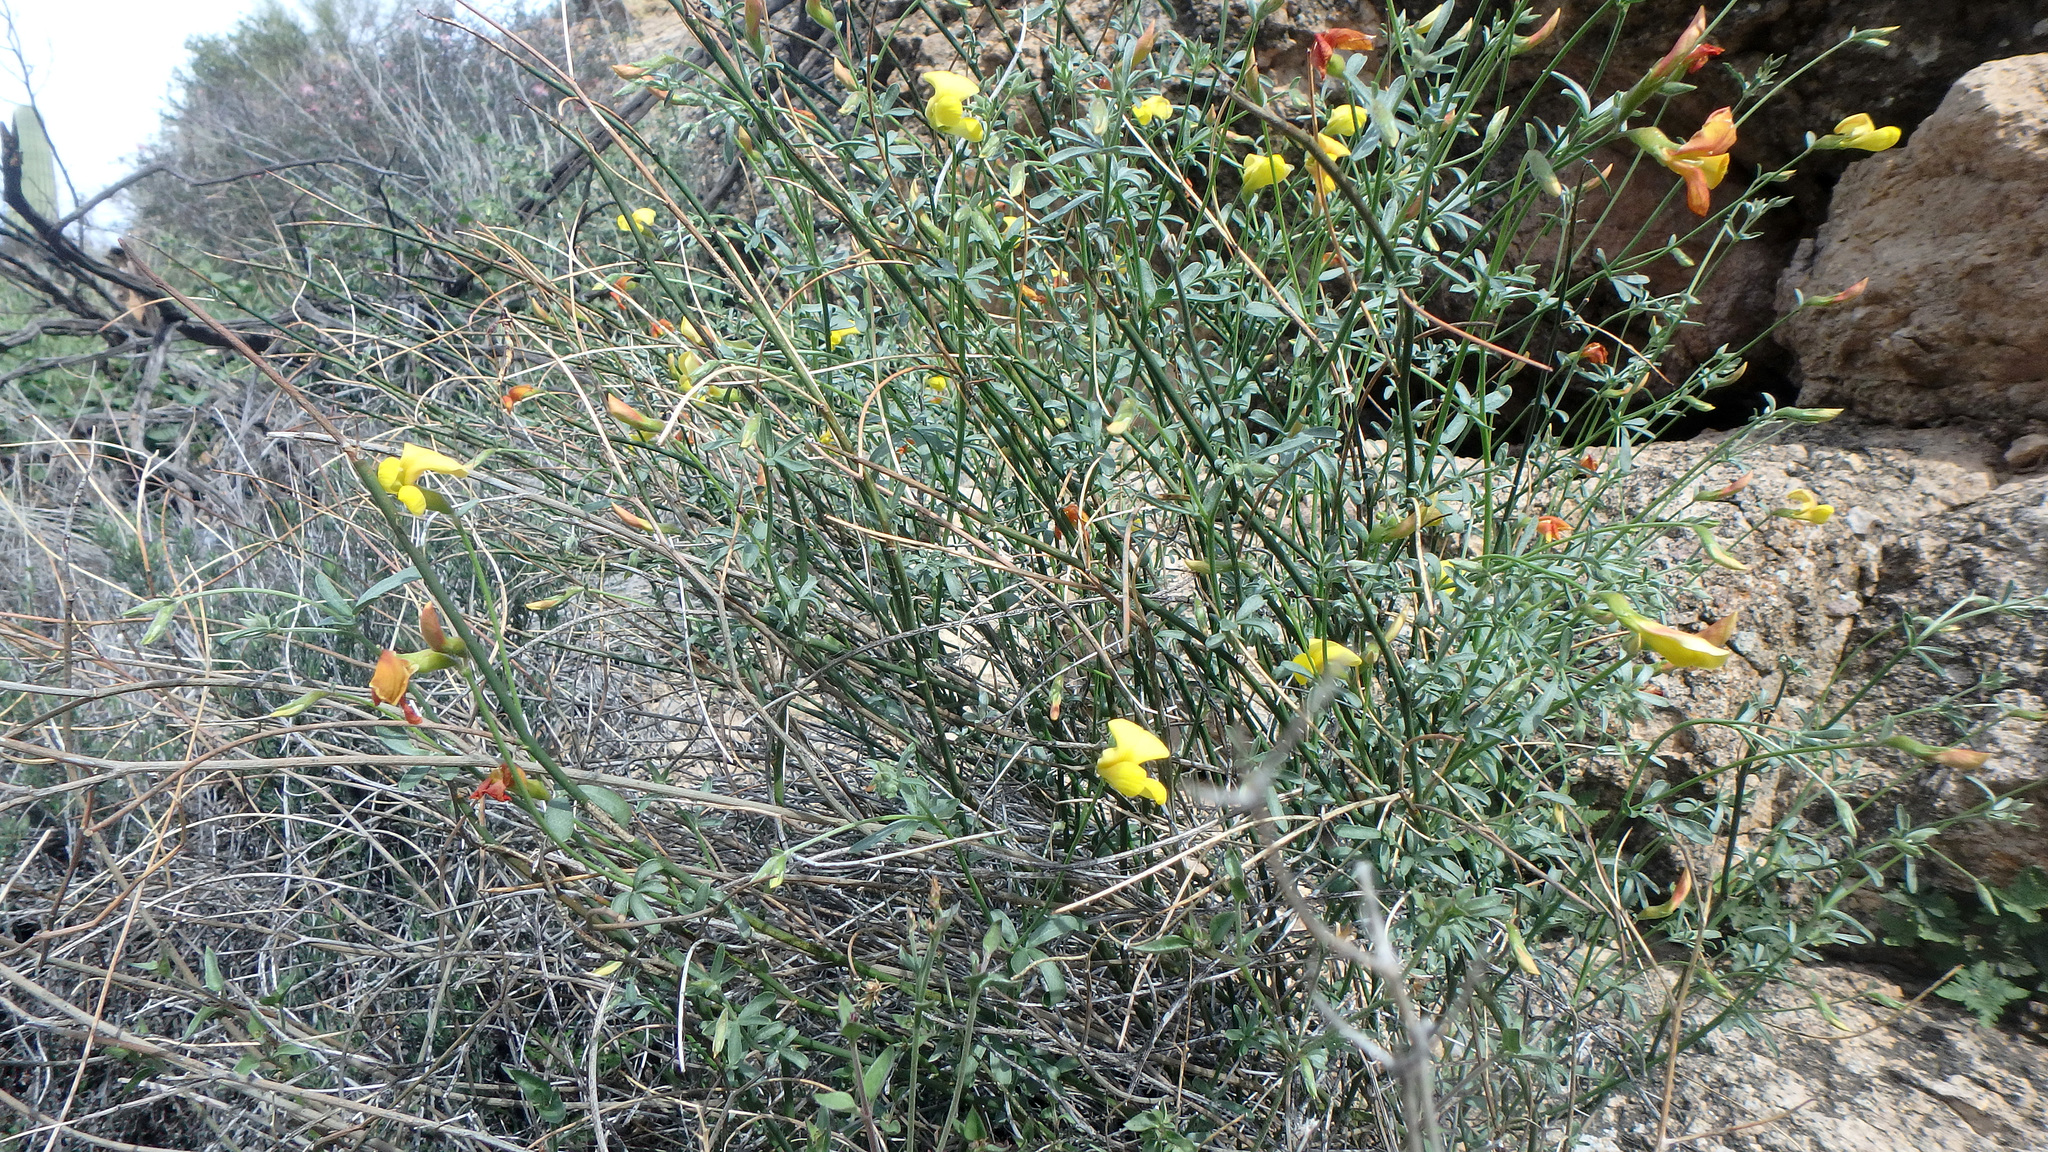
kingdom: Plantae
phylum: Tracheophyta
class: Magnoliopsida
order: Fabales
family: Fabaceae
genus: Acmispon
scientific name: Acmispon rigidus
